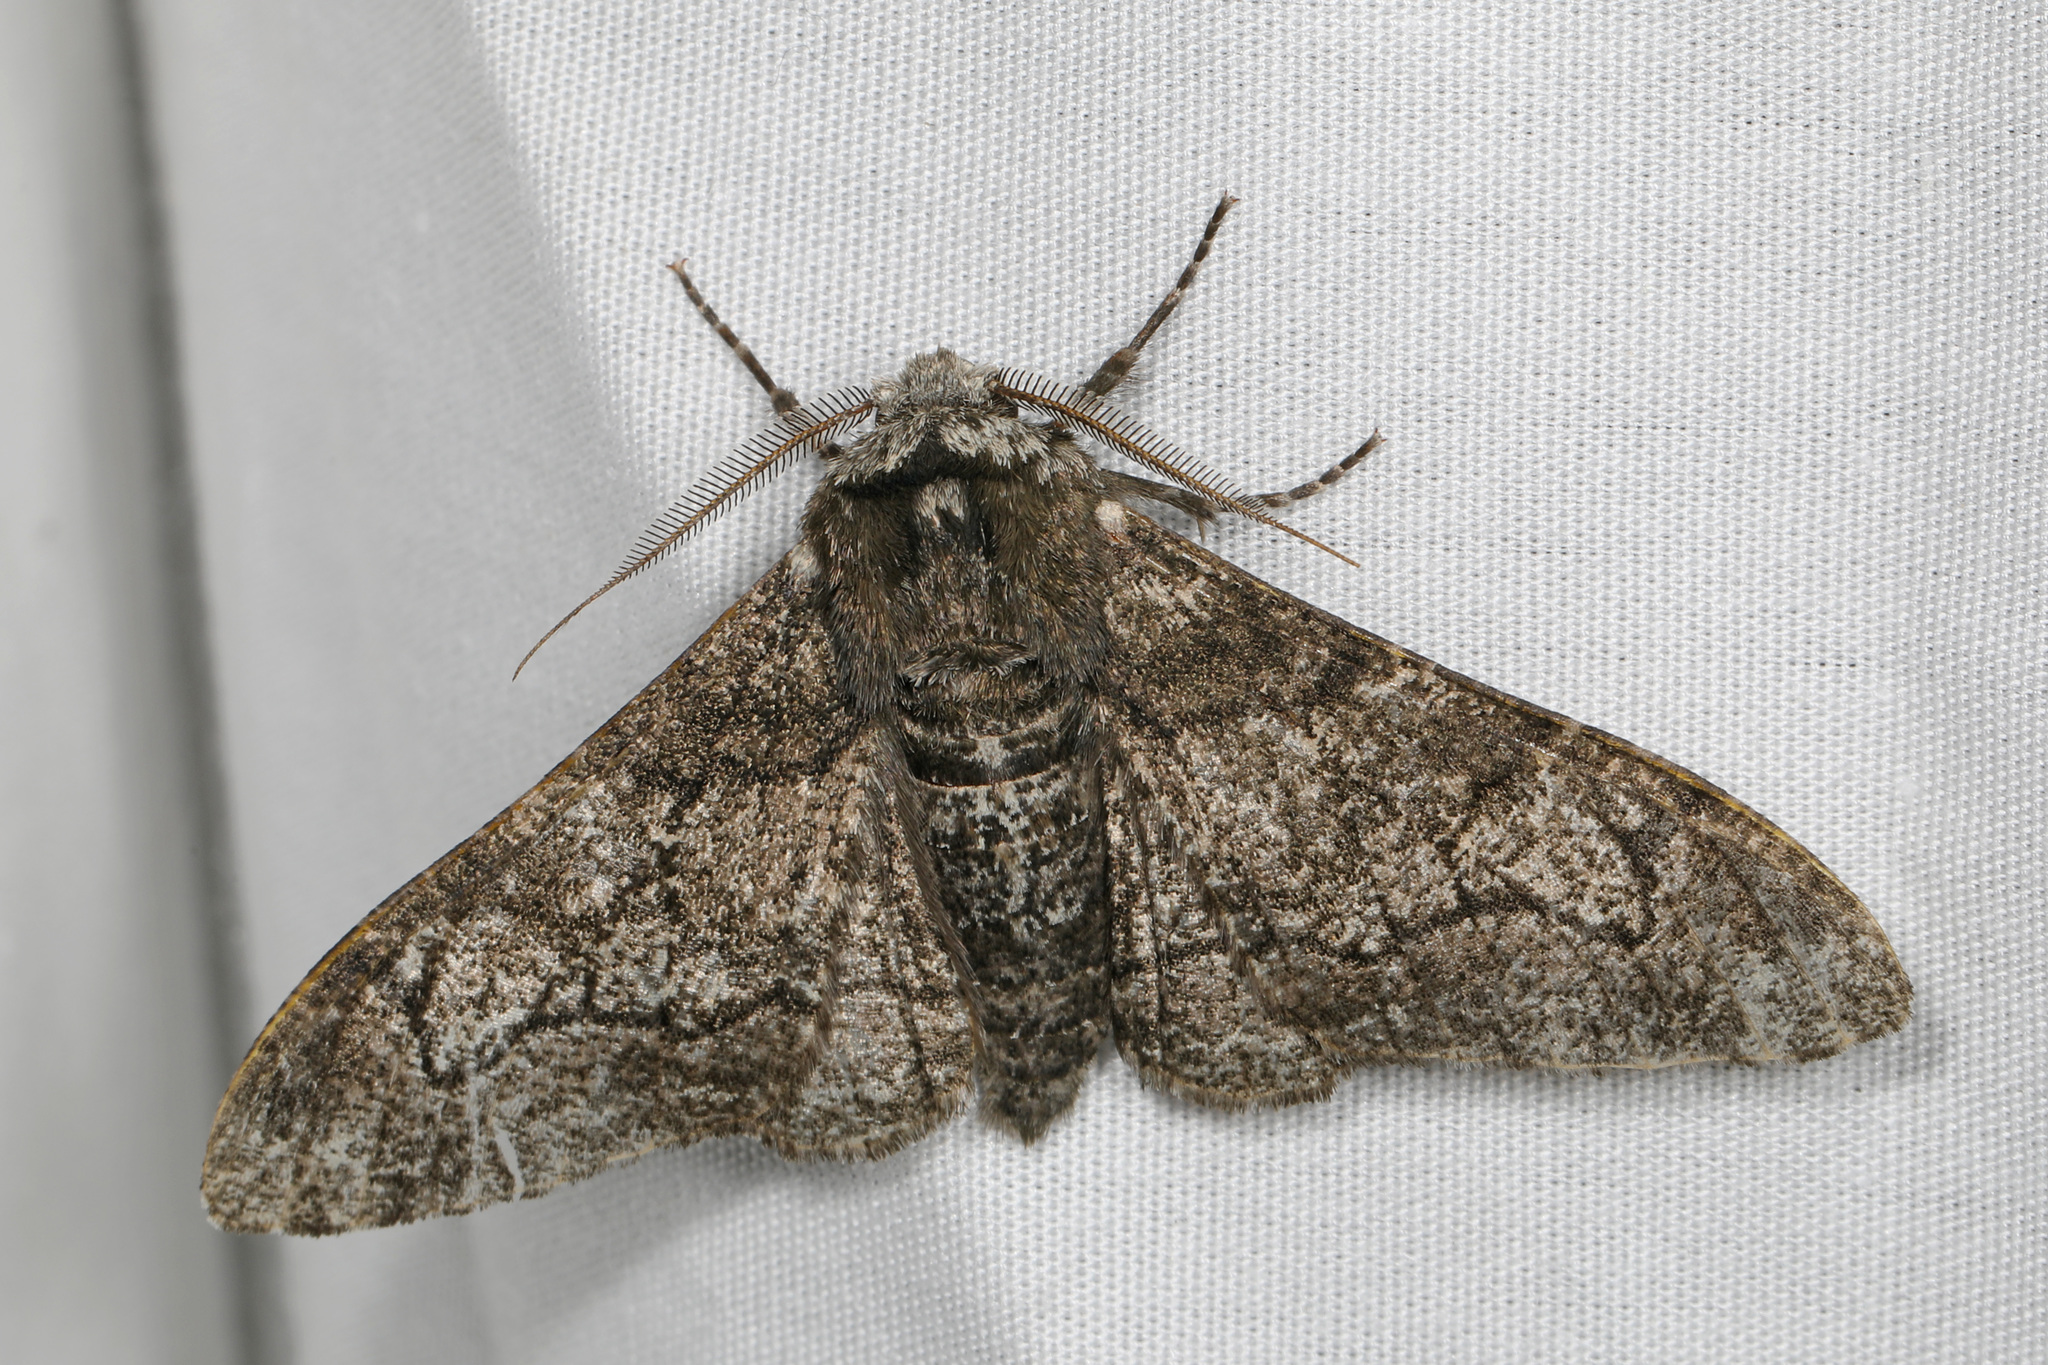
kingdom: Animalia
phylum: Arthropoda
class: Insecta
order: Lepidoptera
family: Geometridae
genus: Biston
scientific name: Biston betularia
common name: Peppered moth
